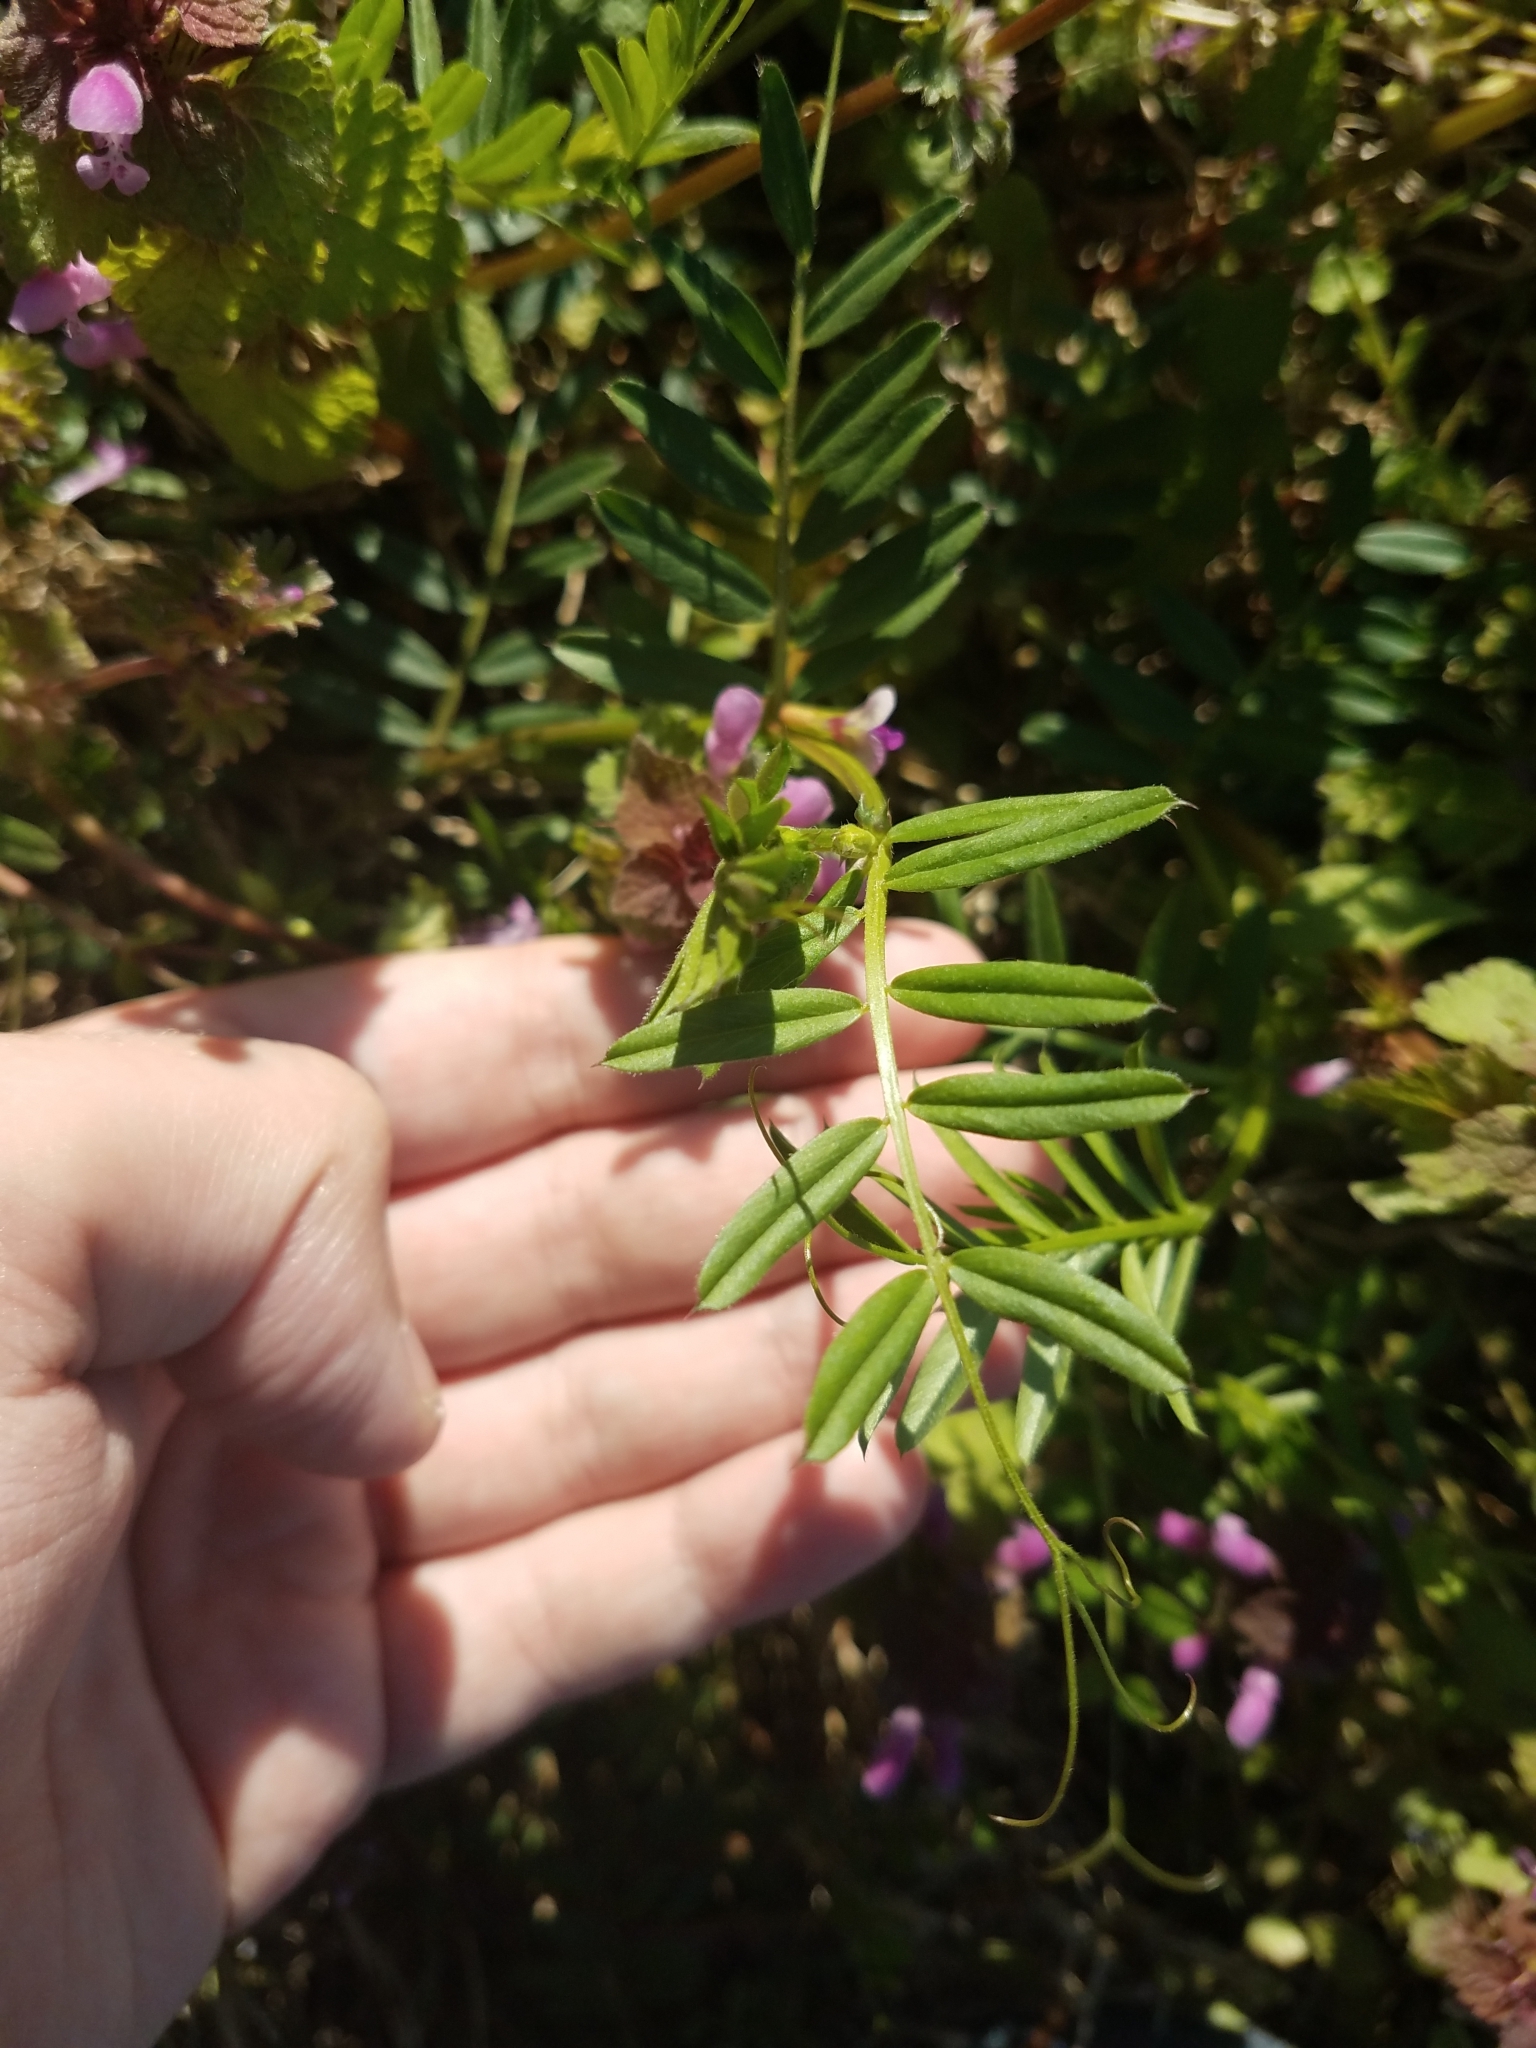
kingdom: Plantae
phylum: Tracheophyta
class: Magnoliopsida
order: Fabales
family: Fabaceae
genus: Vicia
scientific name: Vicia sativa
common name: Garden vetch
